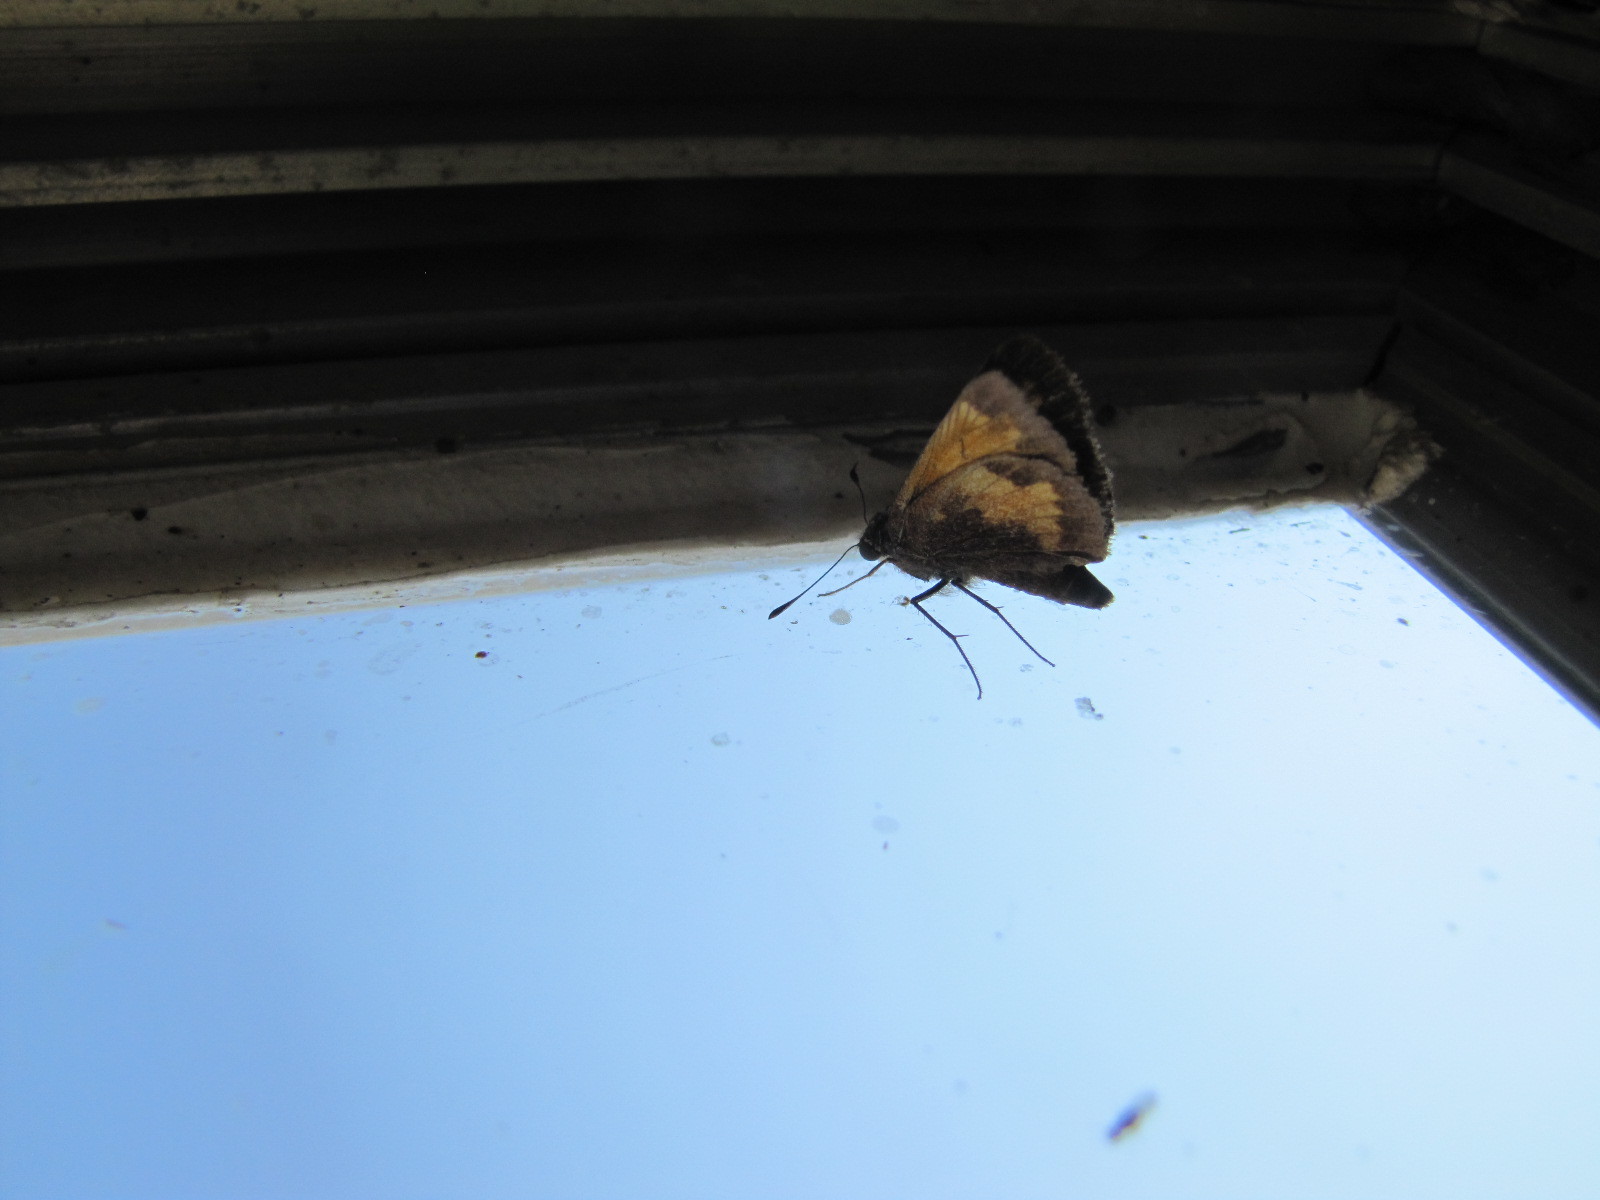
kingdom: Animalia
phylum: Arthropoda
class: Insecta
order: Lepidoptera
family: Hesperiidae
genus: Lon
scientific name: Lon hobomok
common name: Hobomok skipper
